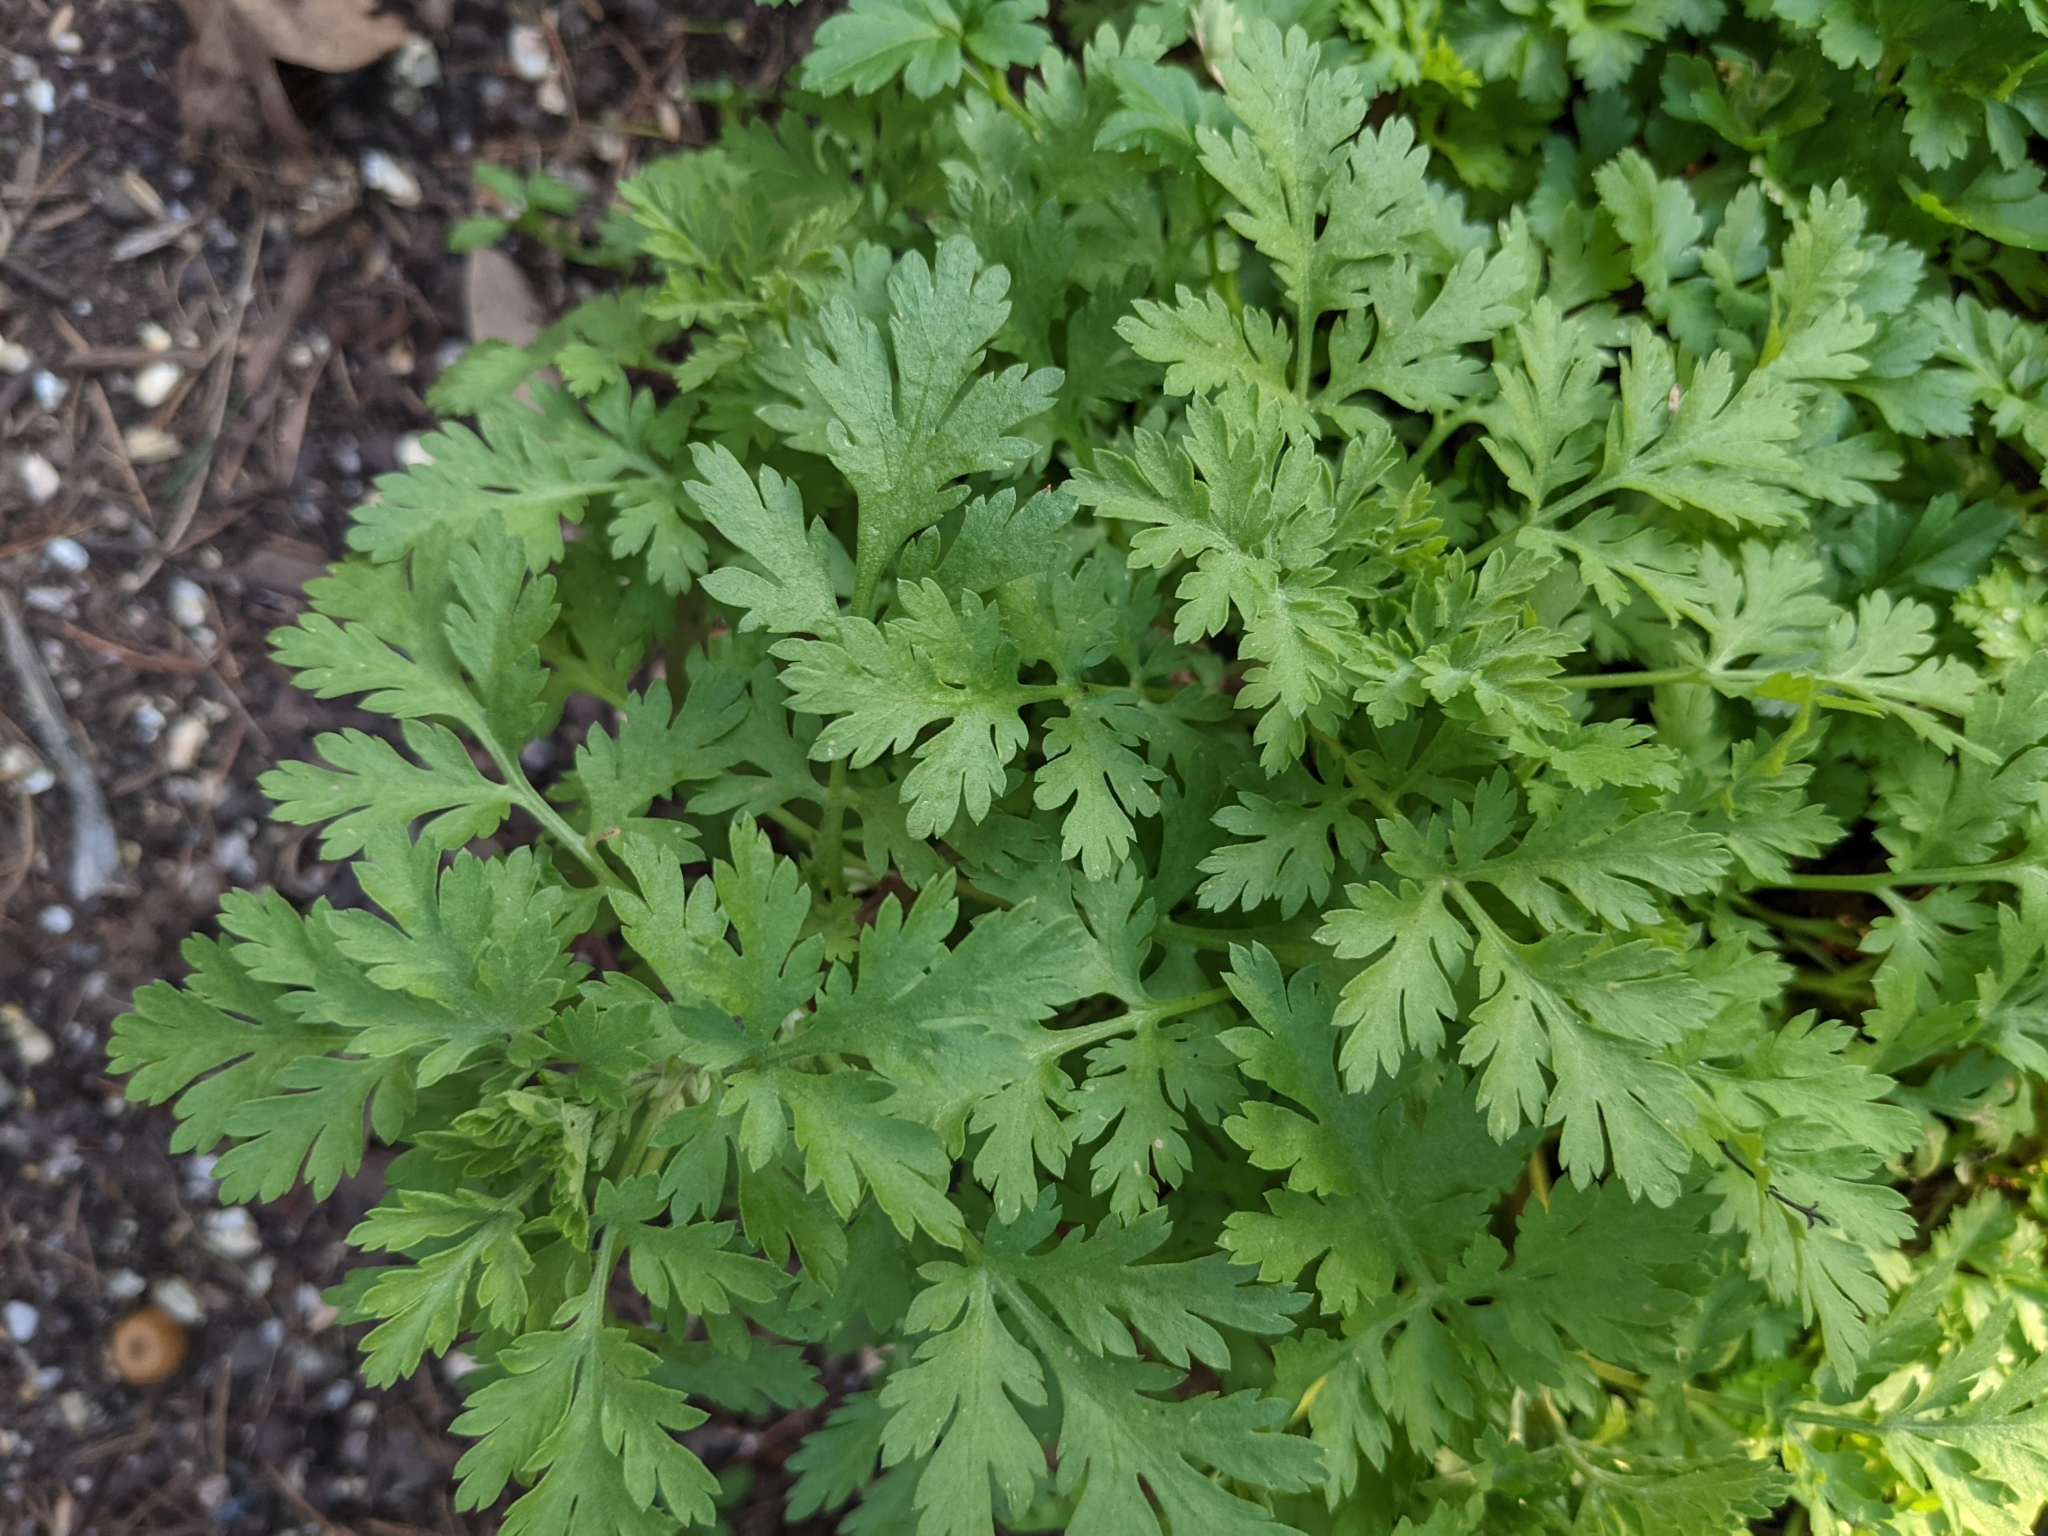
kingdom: Plantae
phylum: Tracheophyta
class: Magnoliopsida
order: Asterales
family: Asteraceae
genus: Tanacetum
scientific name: Tanacetum parthenium
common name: Feverfew
